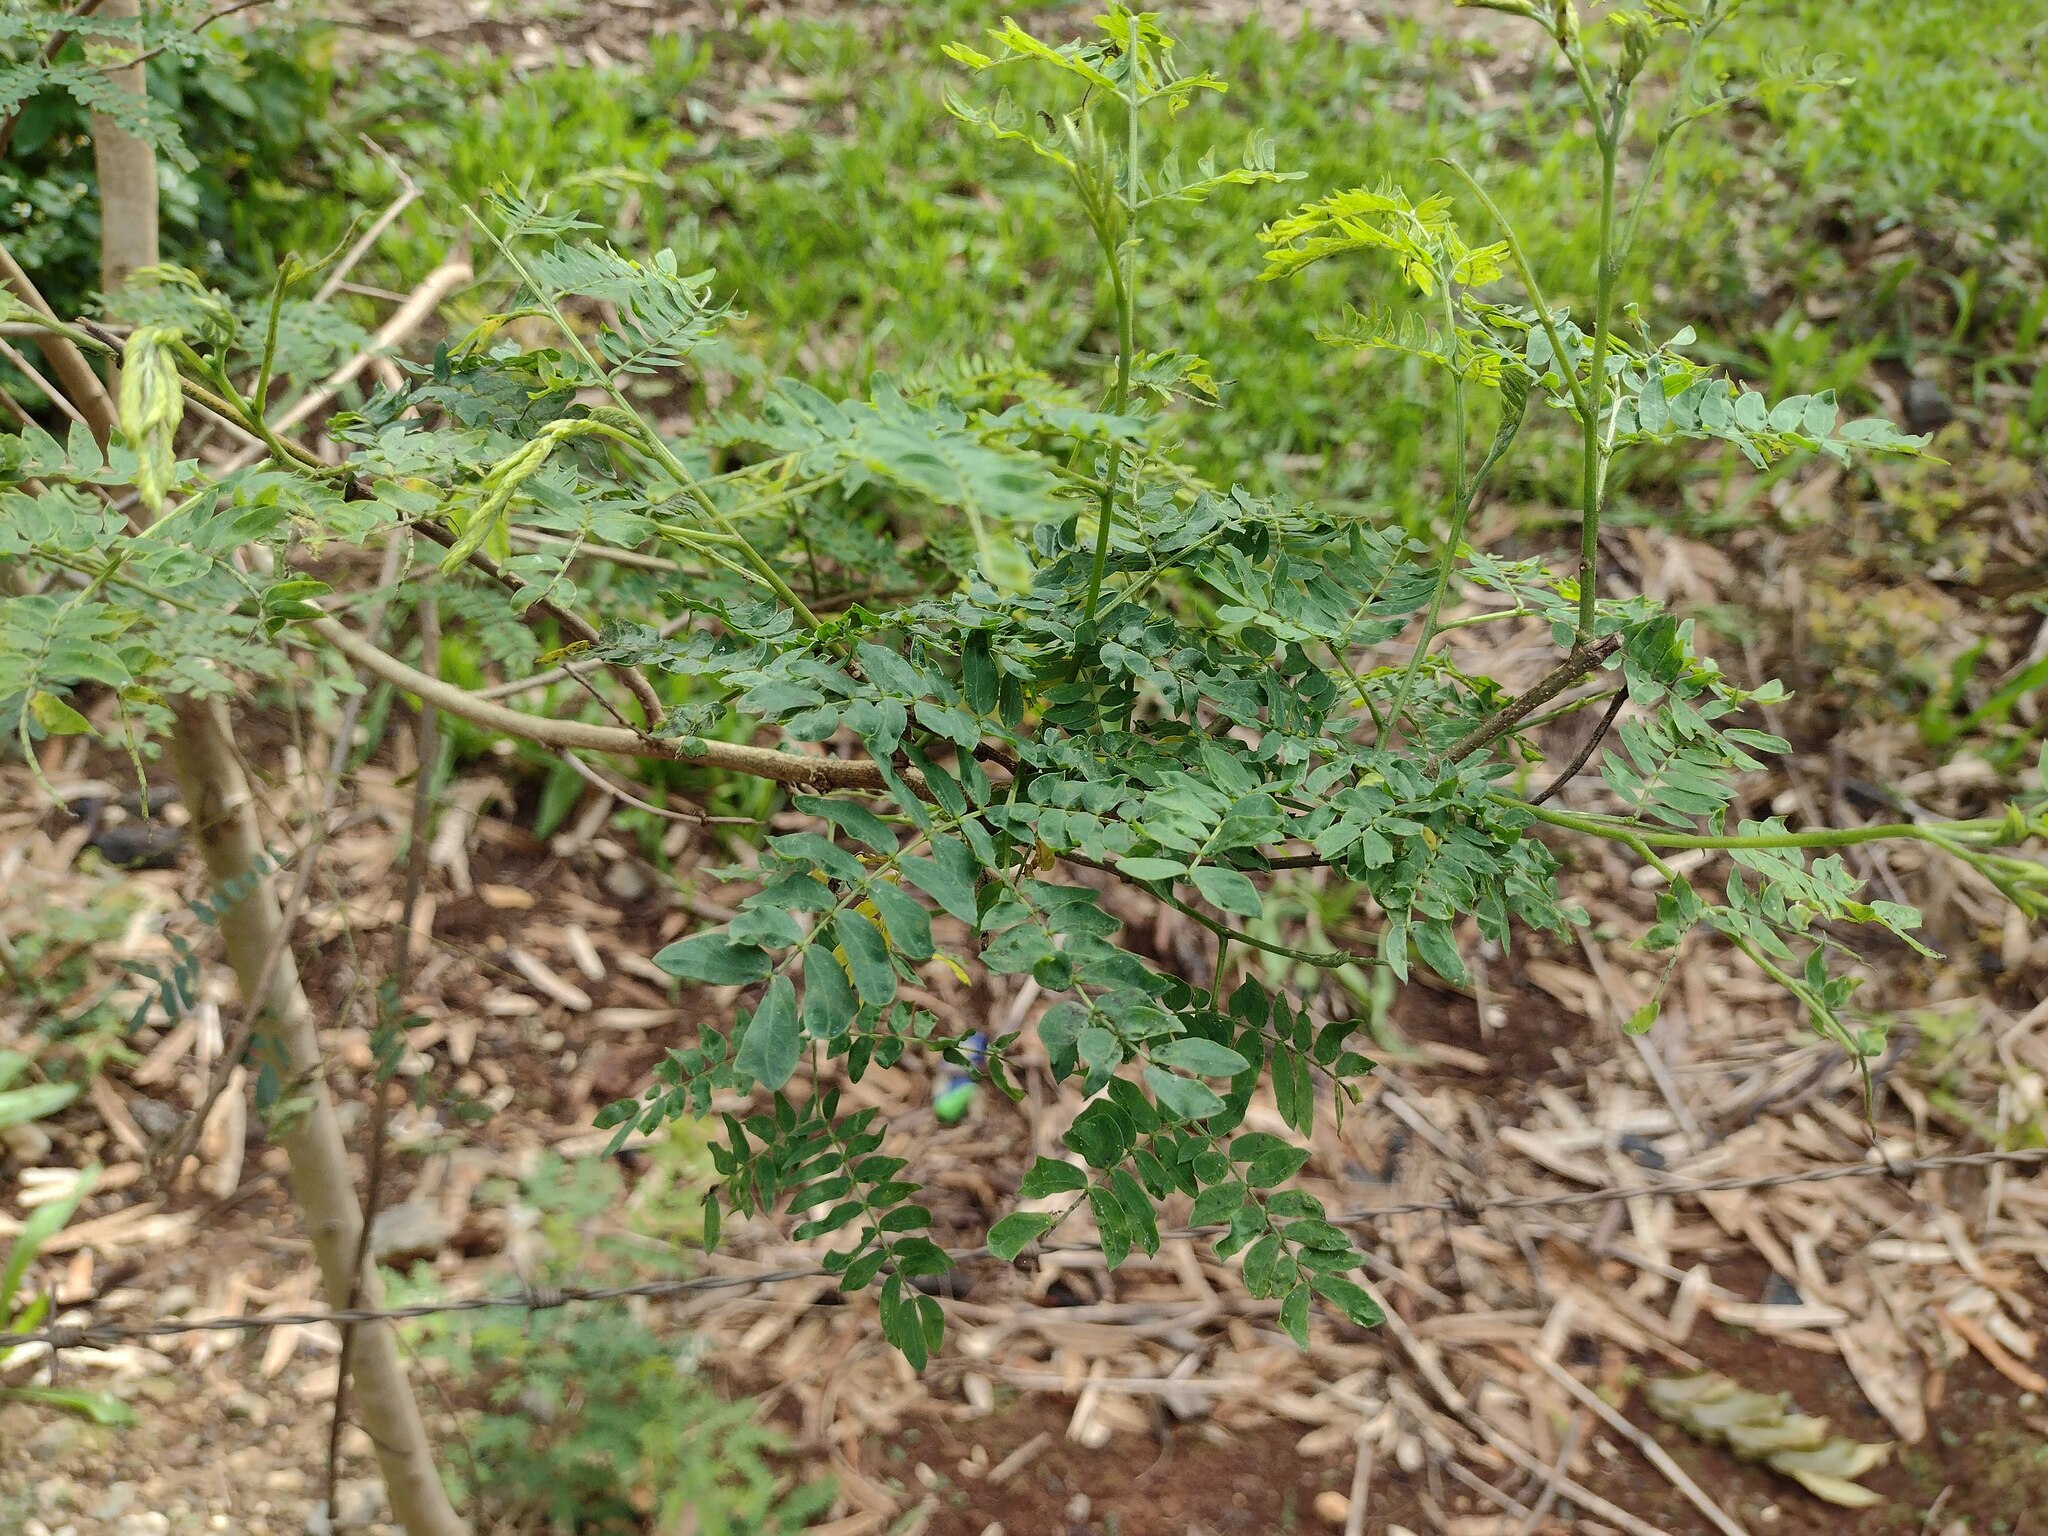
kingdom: Plantae
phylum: Tracheophyta
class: Magnoliopsida
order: Fabales
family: Fabaceae
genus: Leucaena
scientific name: Leucaena leucocephala
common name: White leadtree
